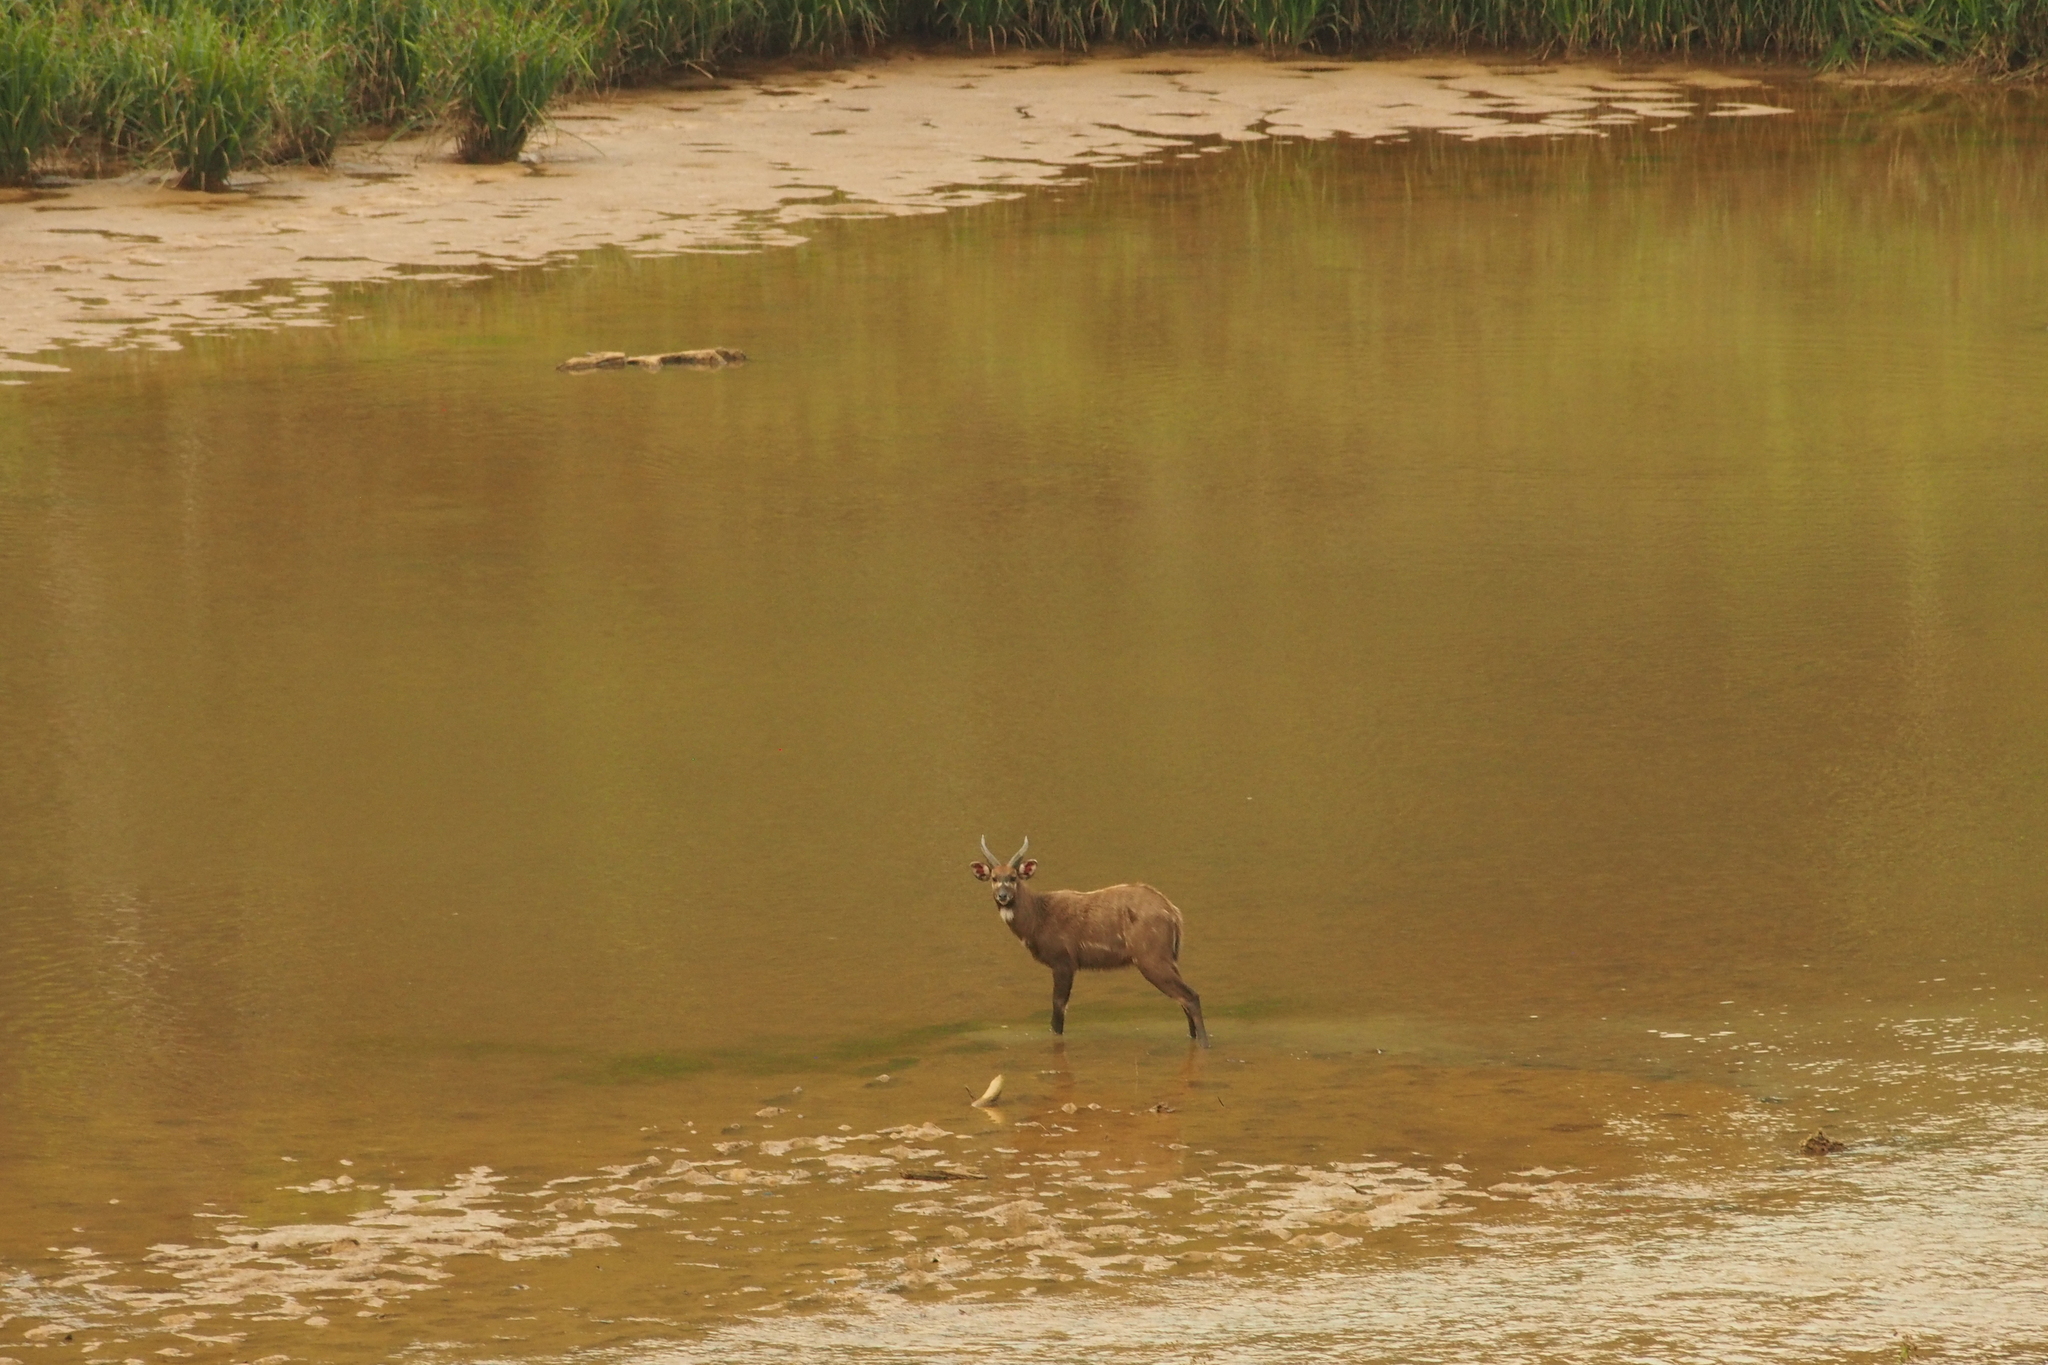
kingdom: Animalia
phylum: Chordata
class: Mammalia
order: Artiodactyla
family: Bovidae
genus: Tragelaphus
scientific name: Tragelaphus spekii
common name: Sitatunga
